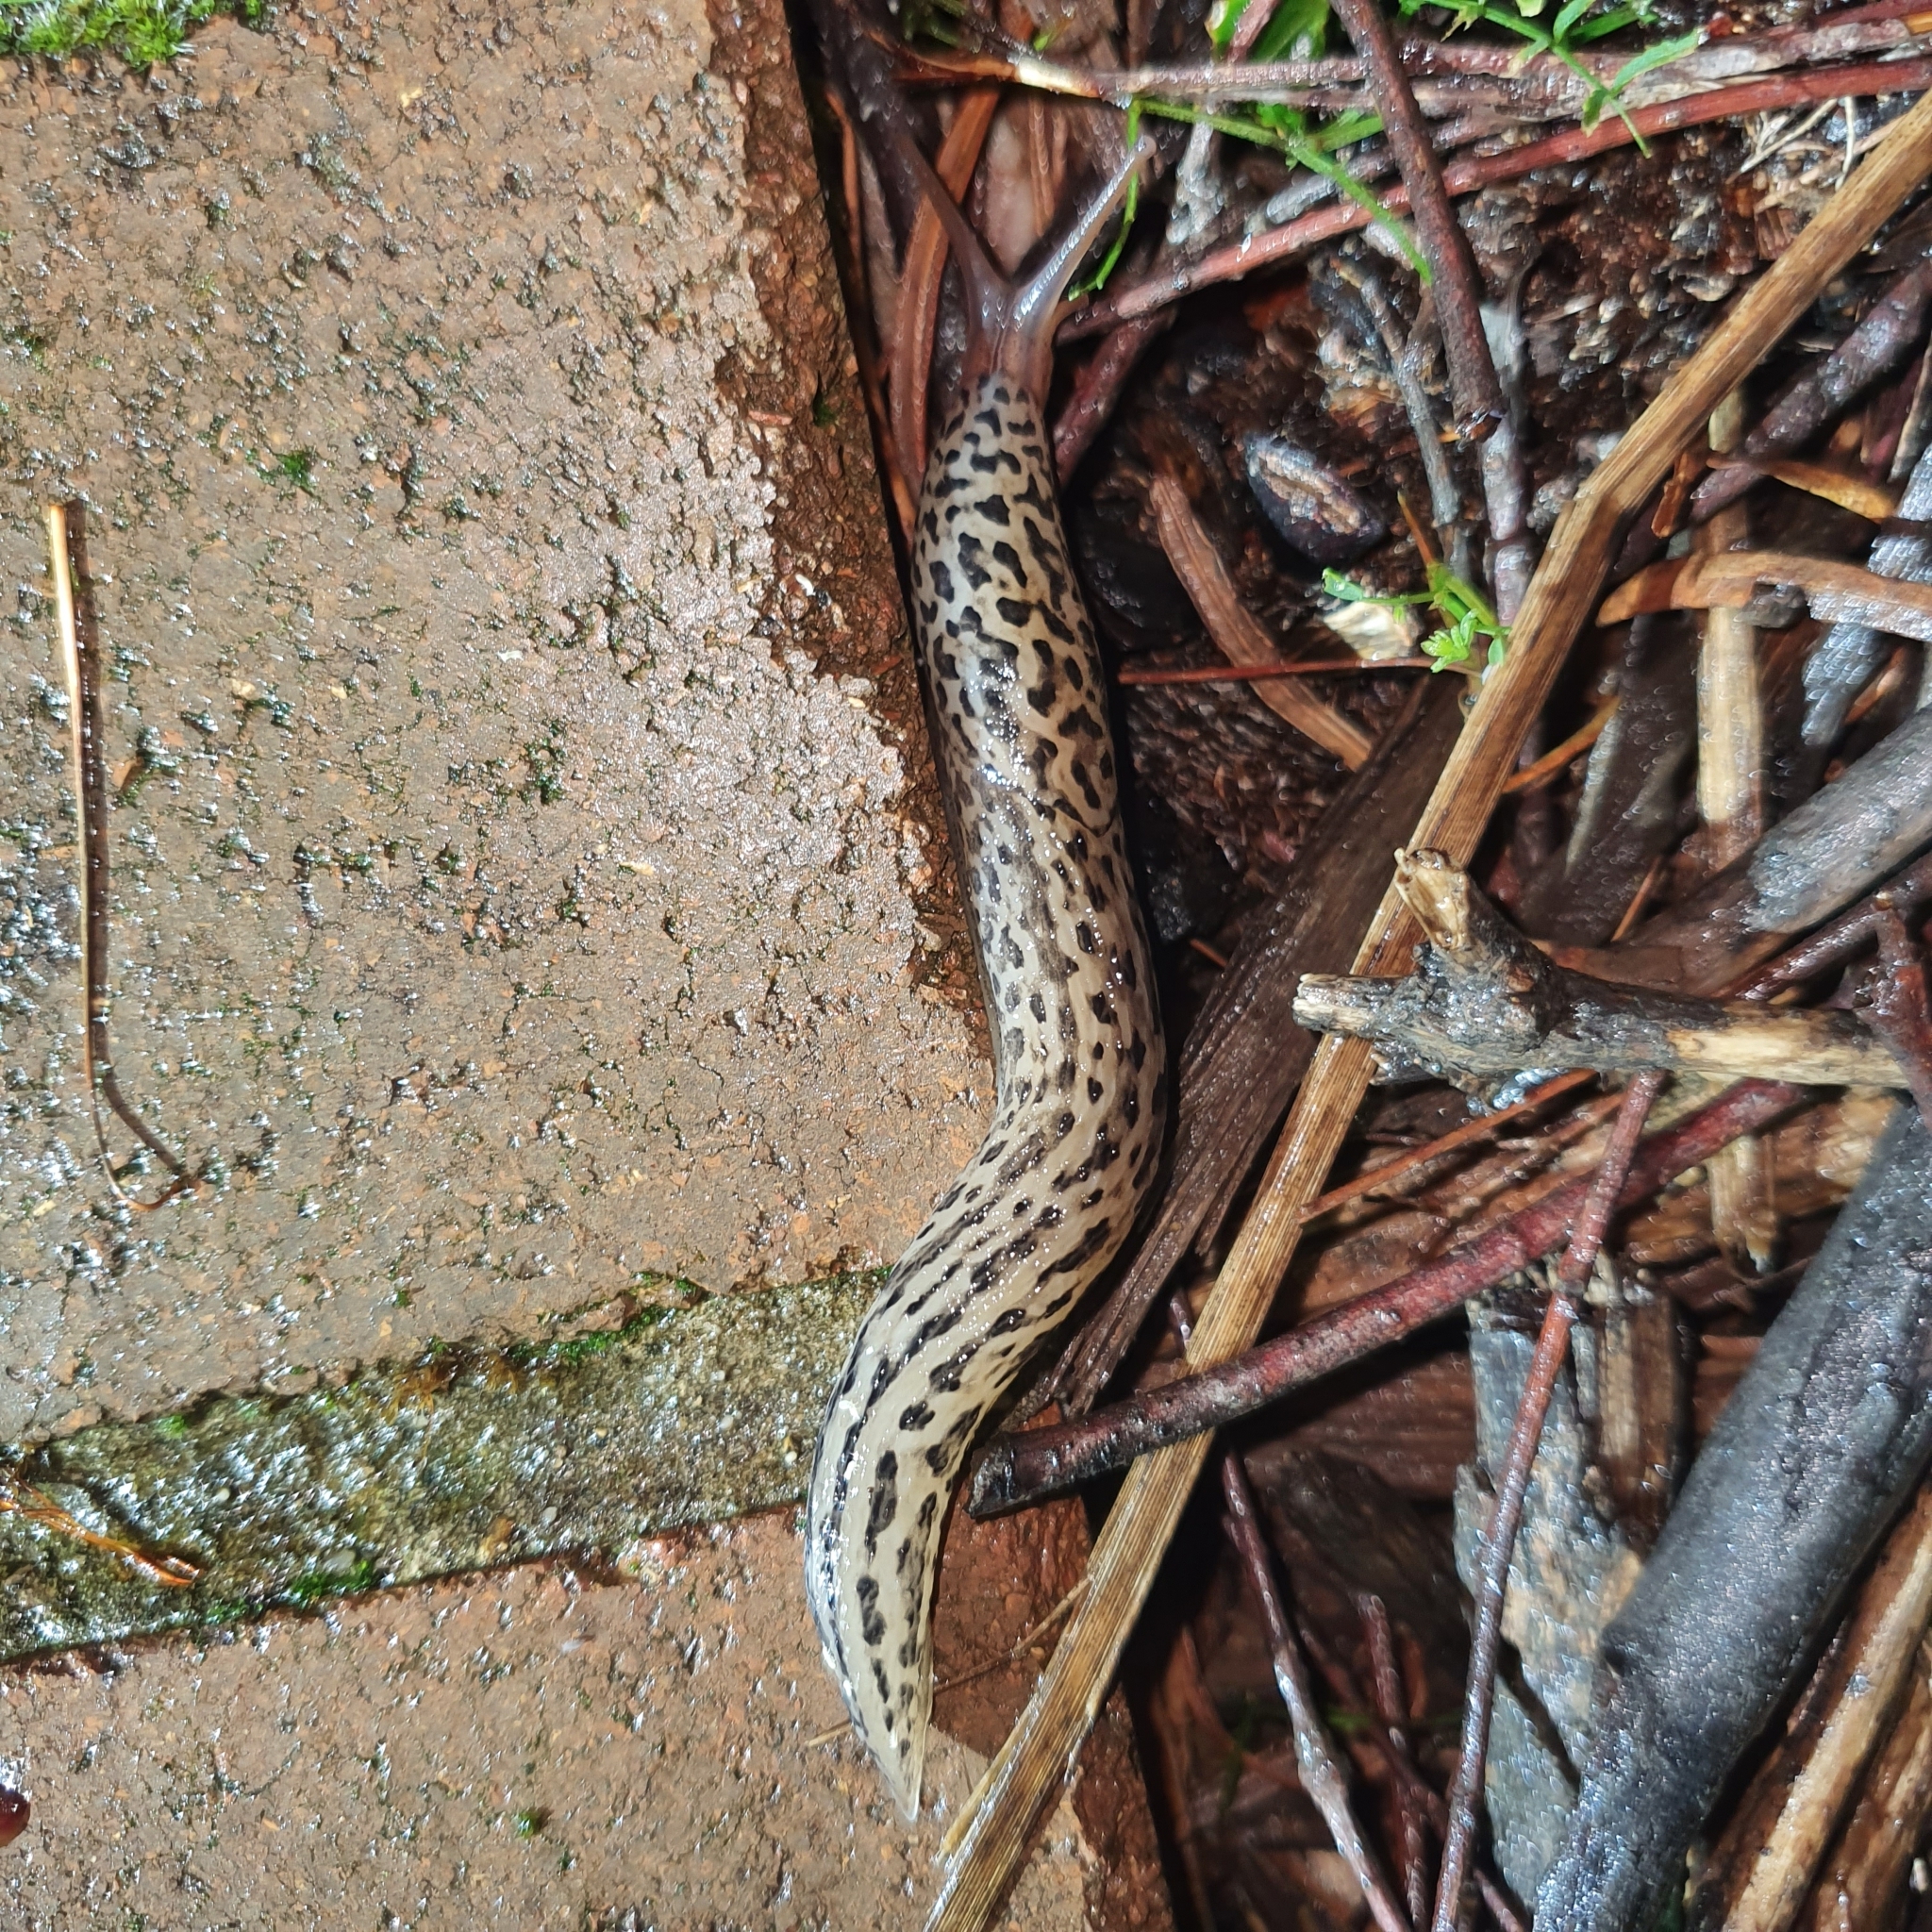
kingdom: Animalia
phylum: Mollusca
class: Gastropoda
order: Stylommatophora
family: Limacidae
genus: Limax
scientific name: Limax maximus
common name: Great grey slug
